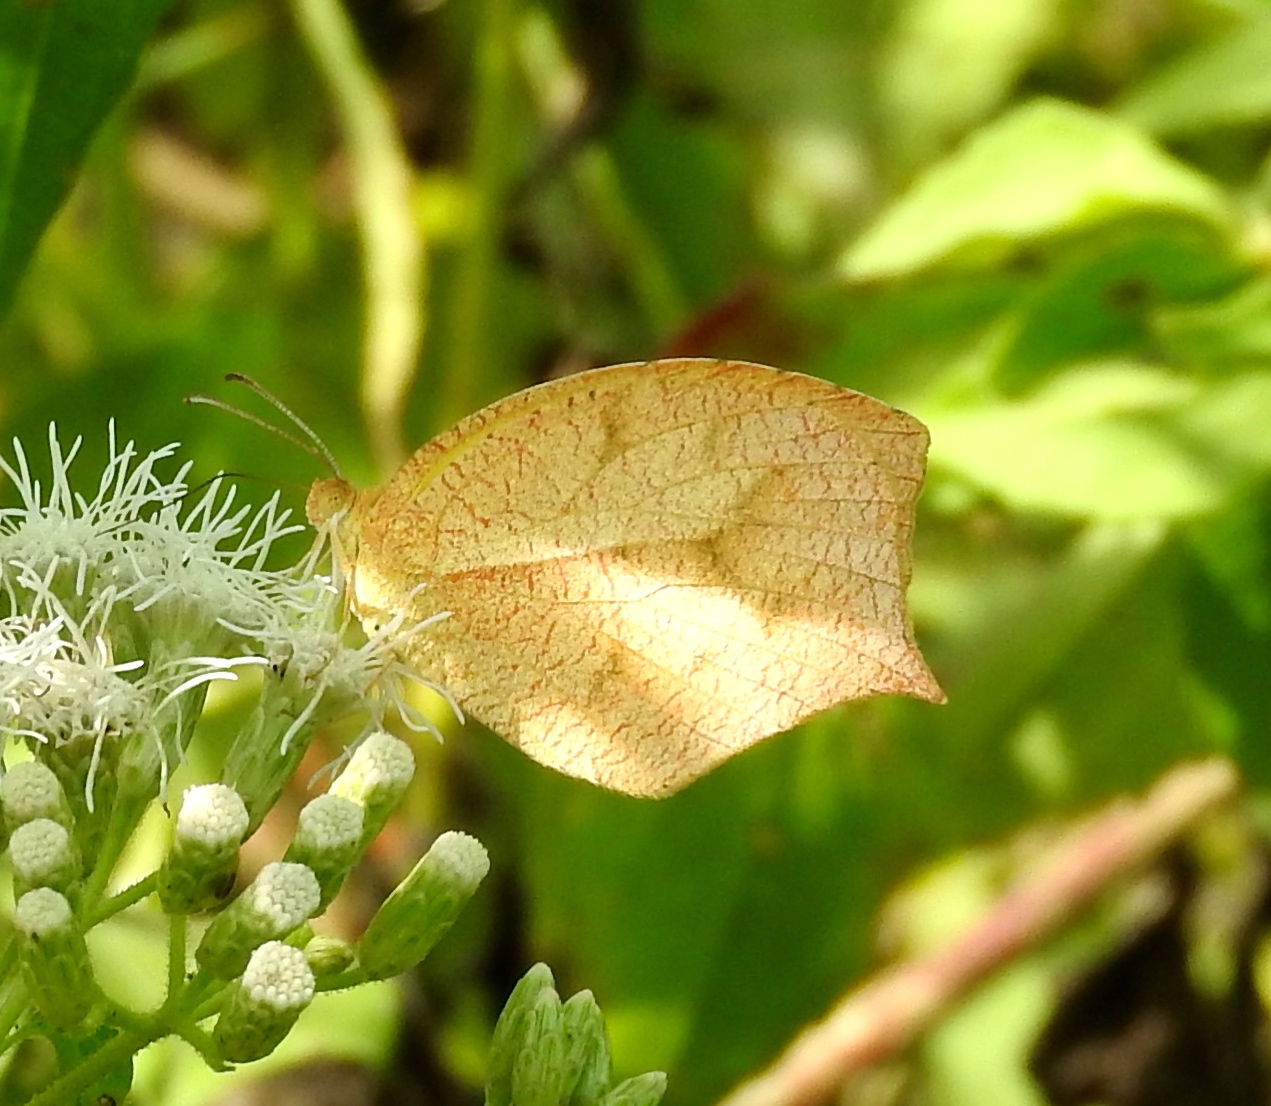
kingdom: Animalia
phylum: Arthropoda
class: Insecta
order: Lepidoptera
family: Pieridae
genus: Pyrisitia
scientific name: Pyrisitia proterpia
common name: Tailed orange
